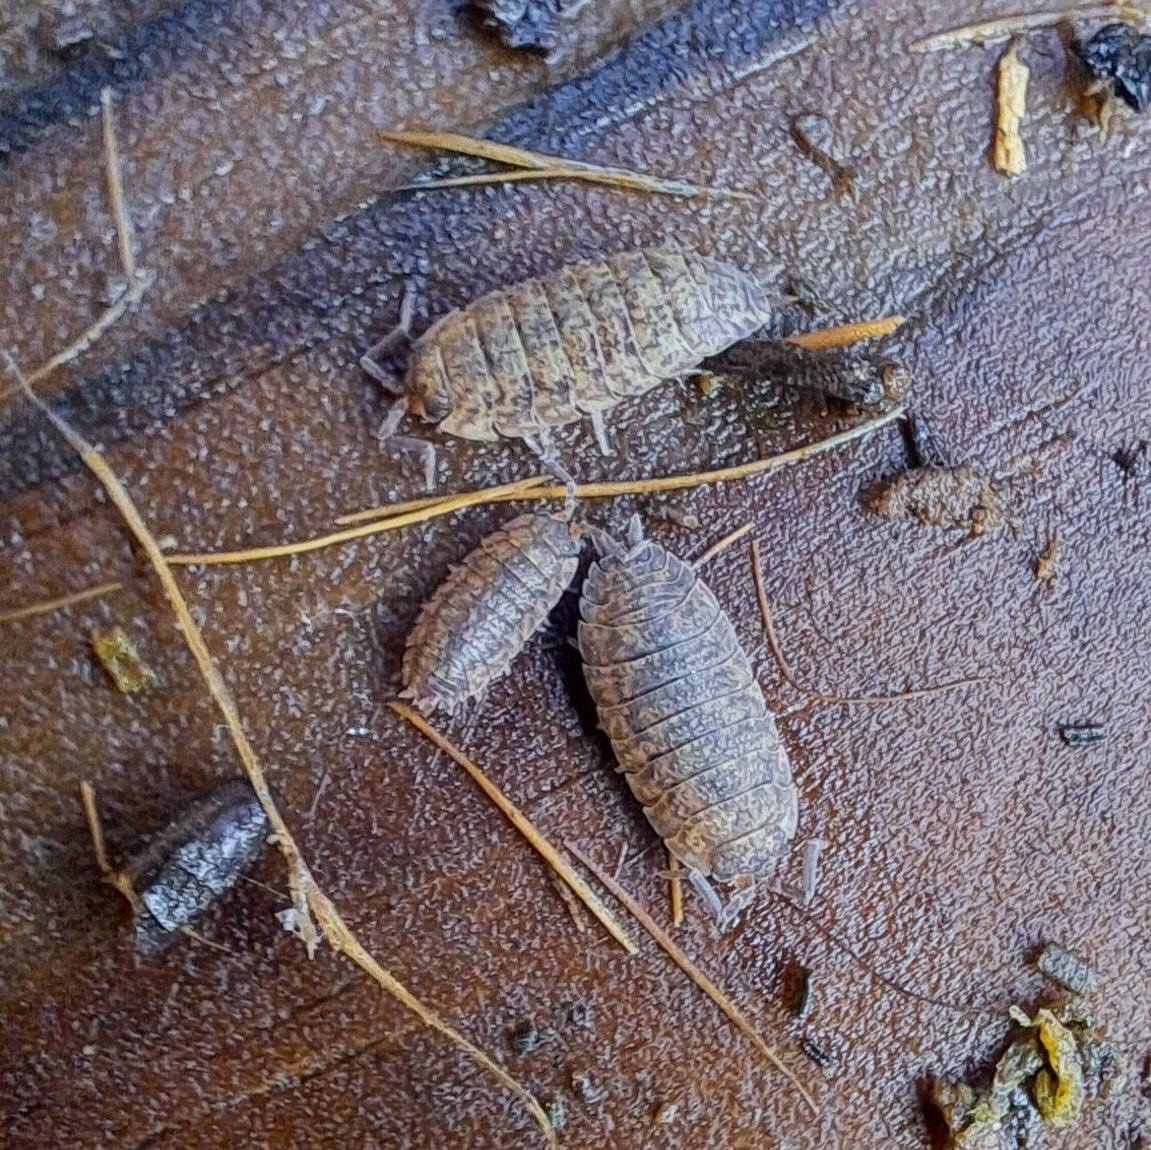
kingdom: Animalia
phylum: Arthropoda
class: Malacostraca
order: Isopoda
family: Porcellionidae
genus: Porcellio
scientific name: Porcellio scaber
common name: Common rough woodlouse
